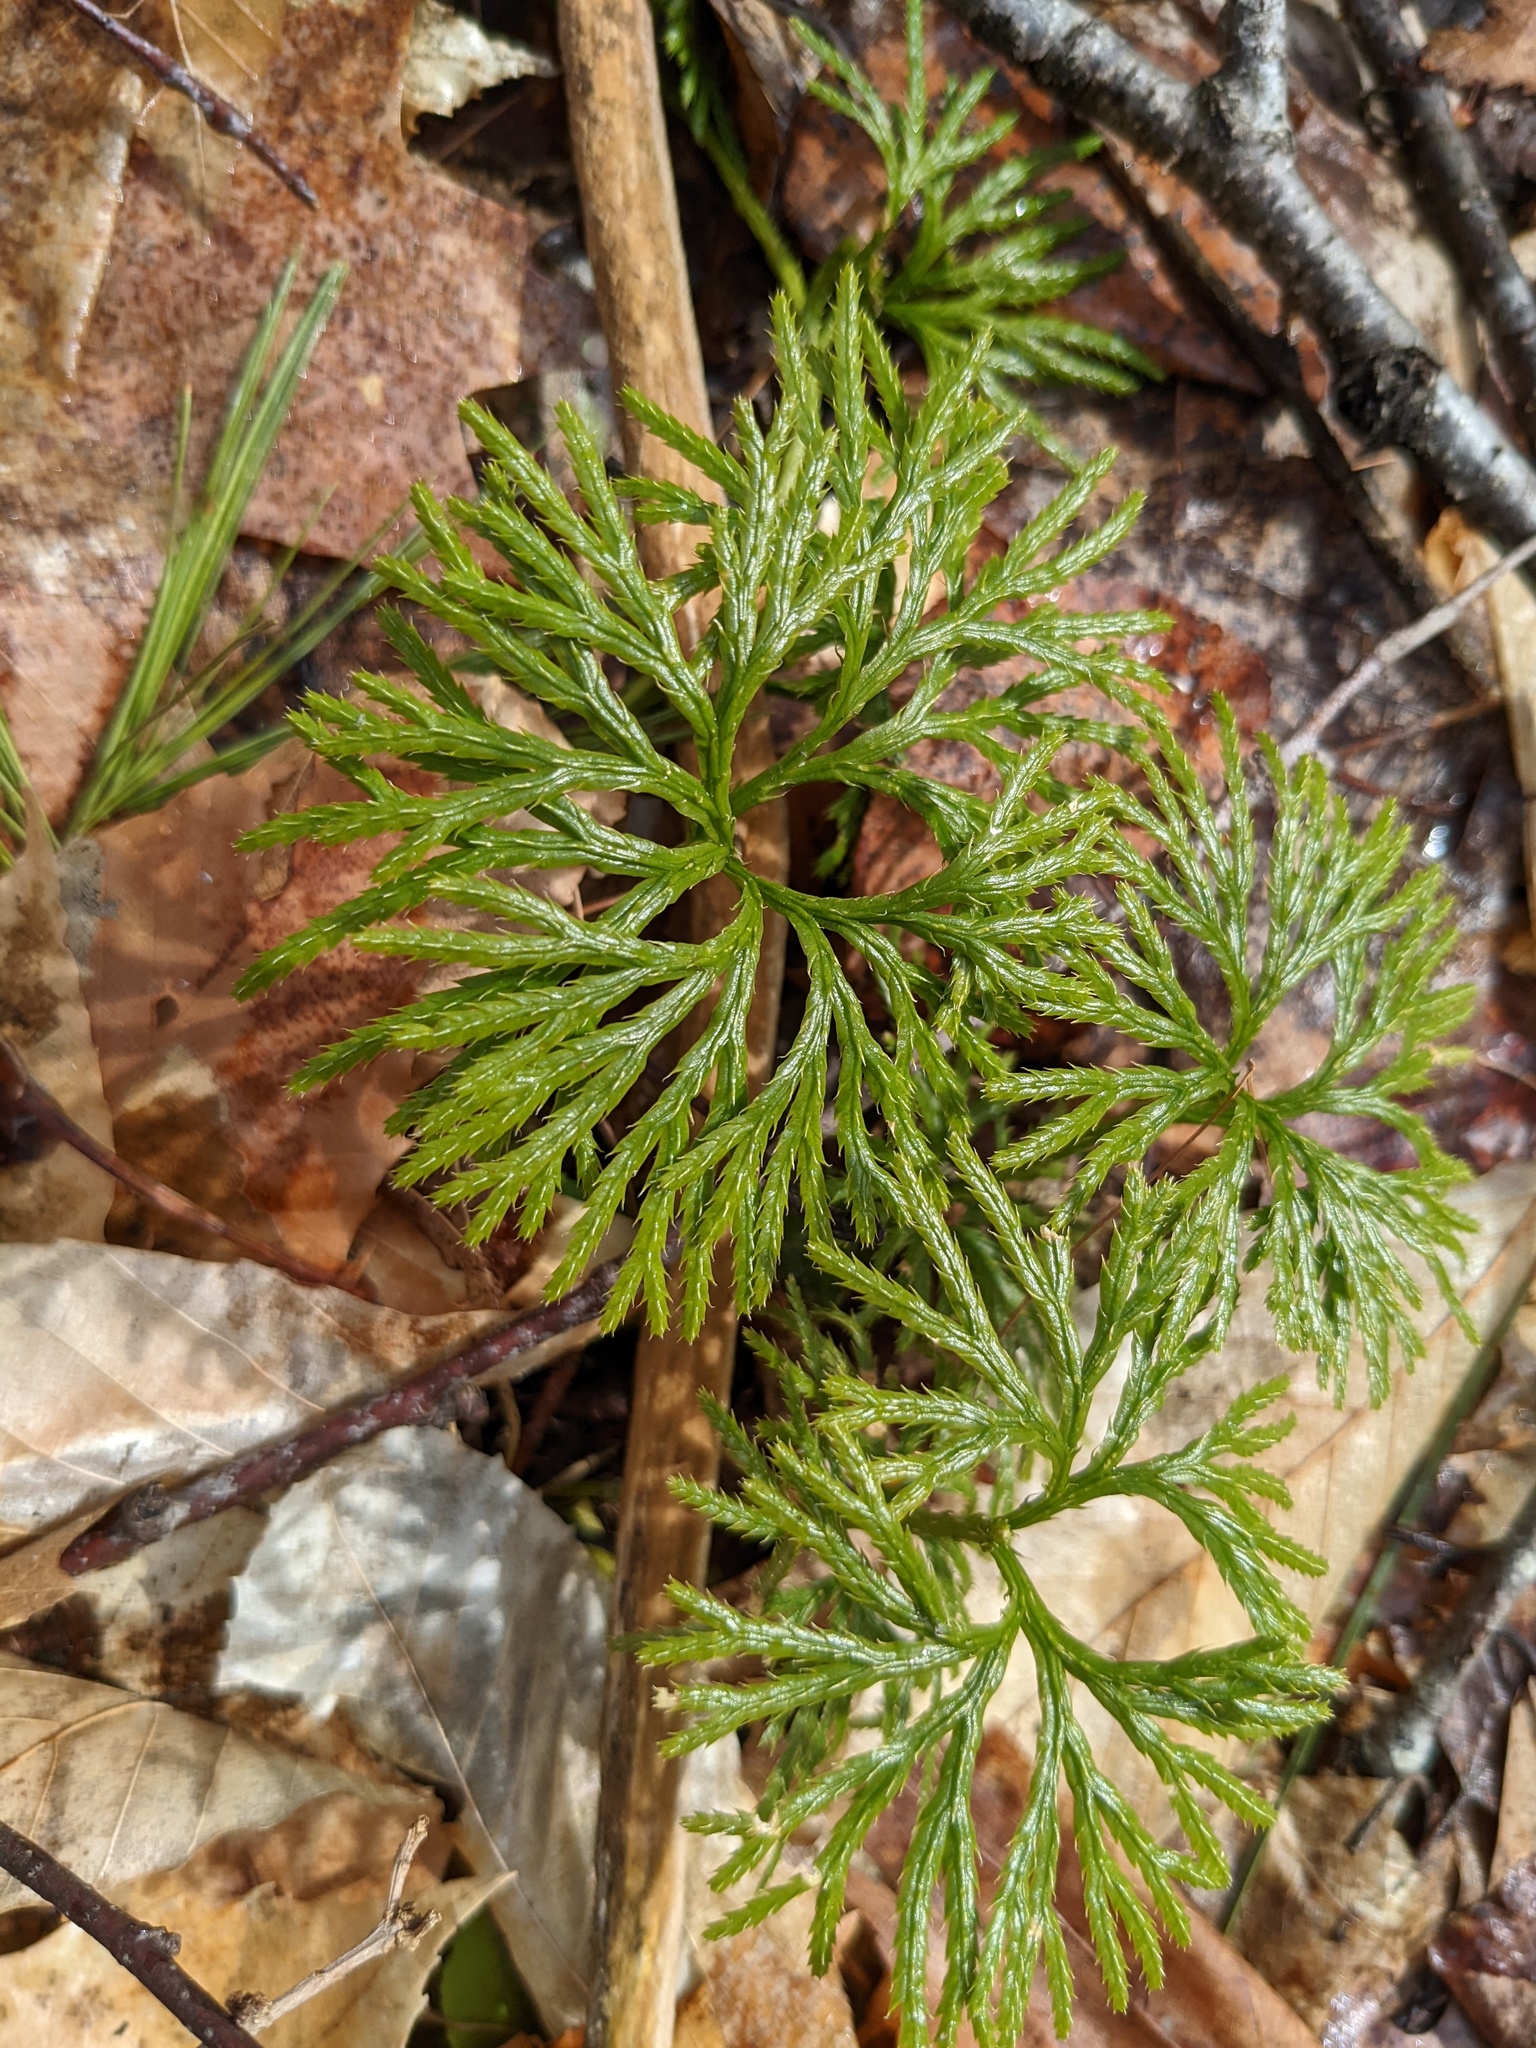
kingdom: Plantae
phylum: Tracheophyta
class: Lycopodiopsida
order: Lycopodiales
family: Lycopodiaceae
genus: Diphasiastrum
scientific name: Diphasiastrum digitatum
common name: Southern running-pine
